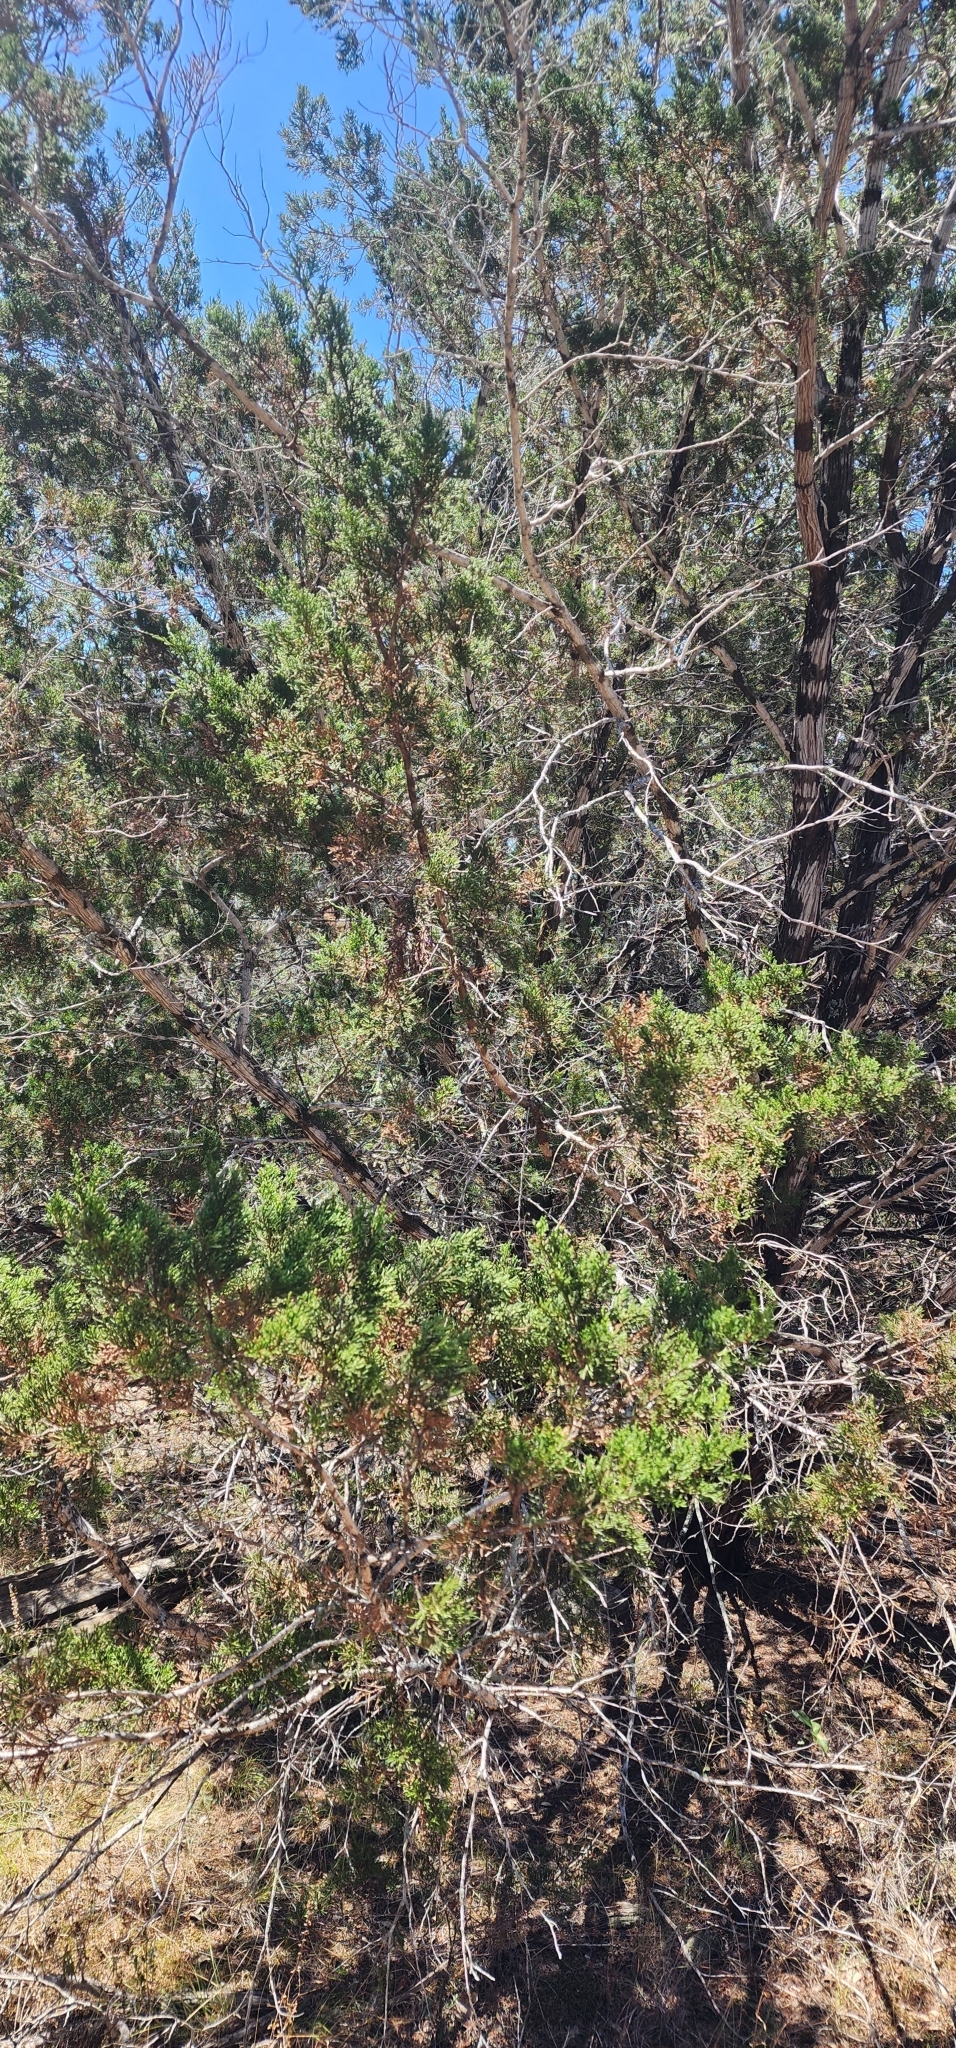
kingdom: Plantae
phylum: Tracheophyta
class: Pinopsida
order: Pinales
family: Cupressaceae
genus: Juniperus
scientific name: Juniperus ashei
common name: Mexican juniper
